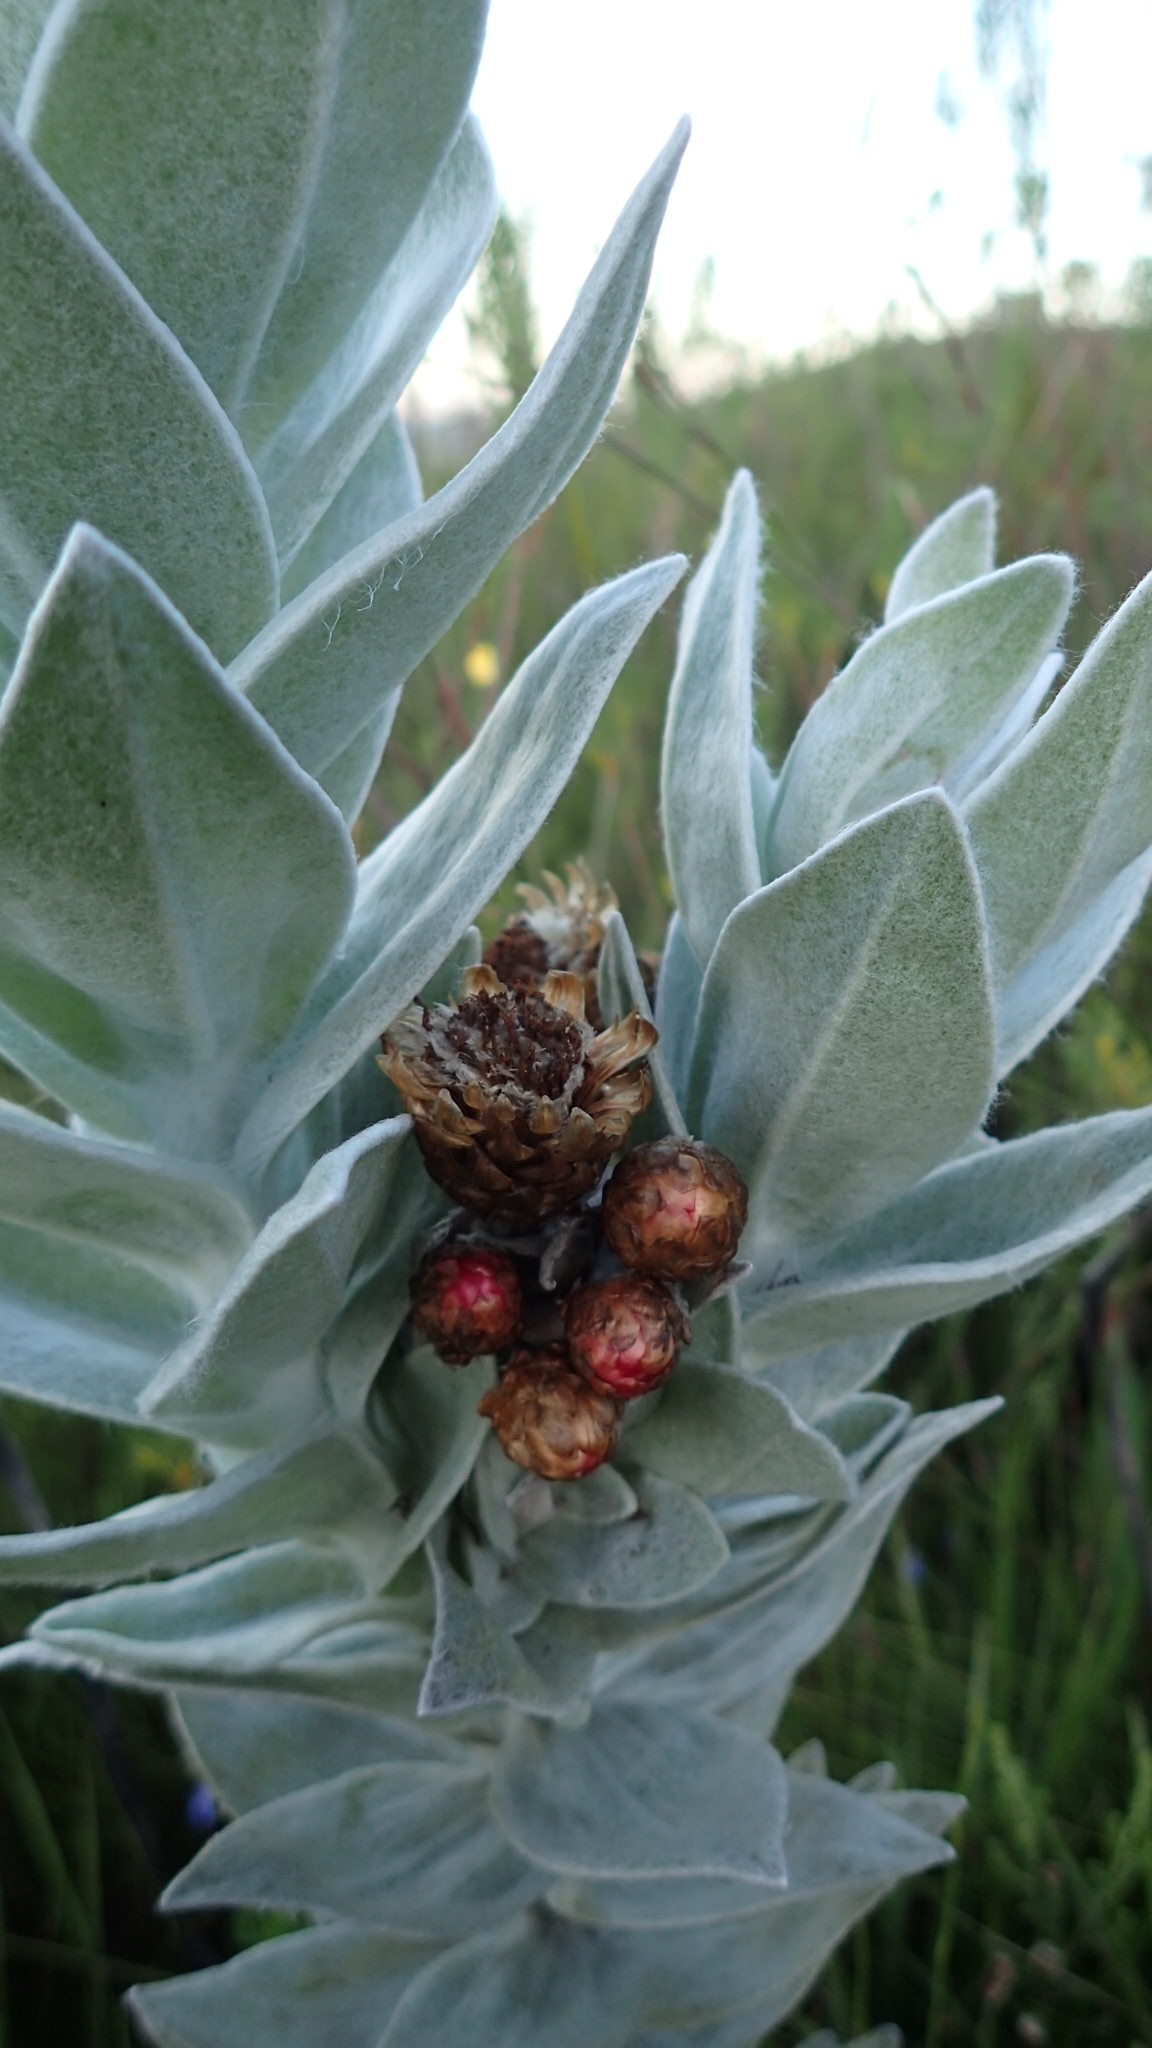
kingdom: Plantae
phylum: Tracheophyta
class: Magnoliopsida
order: Asterales
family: Asteraceae
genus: Syncarpha
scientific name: Syncarpha eximia
